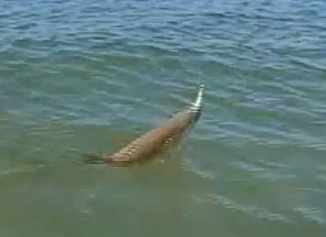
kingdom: Animalia
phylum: Chordata
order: Perciformes
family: Sciaenidae
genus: Cynoscion
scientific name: Cynoscion nebulosus
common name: Spotted seatrout
